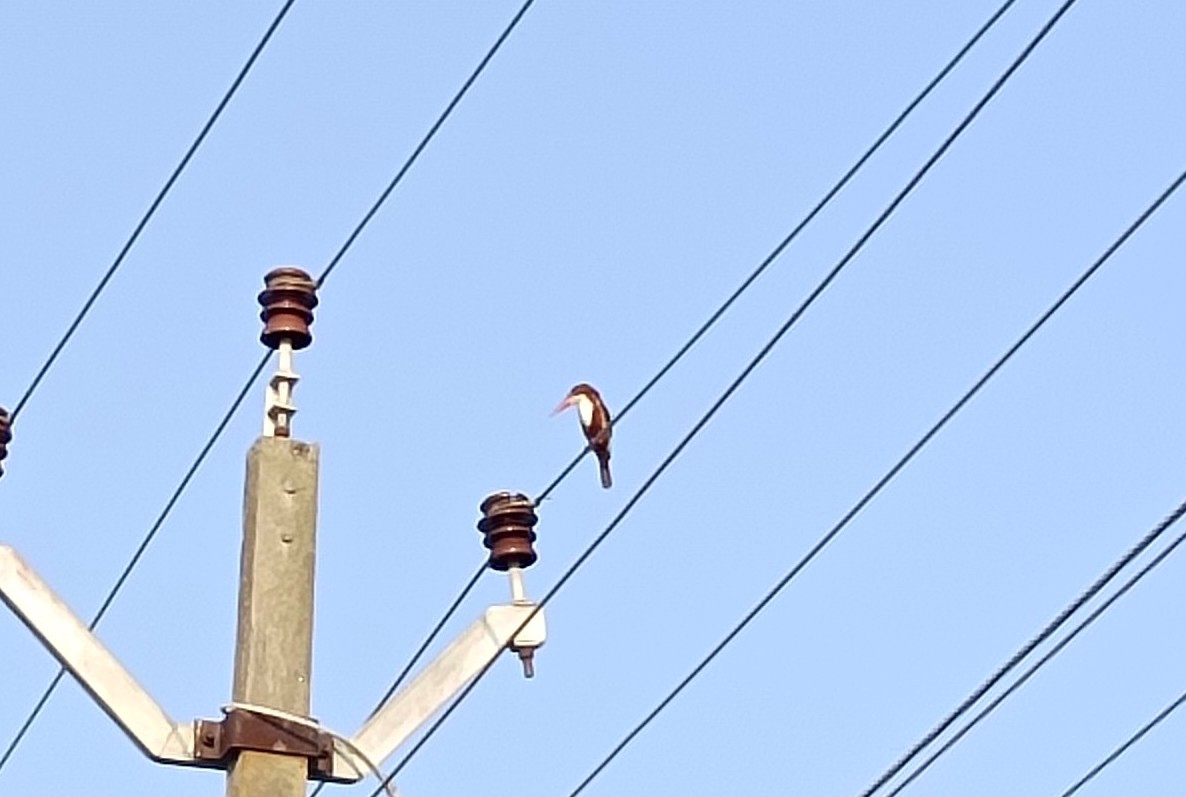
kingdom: Animalia
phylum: Chordata
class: Aves
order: Coraciiformes
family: Alcedinidae
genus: Halcyon
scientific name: Halcyon smyrnensis
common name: White-throated kingfisher
